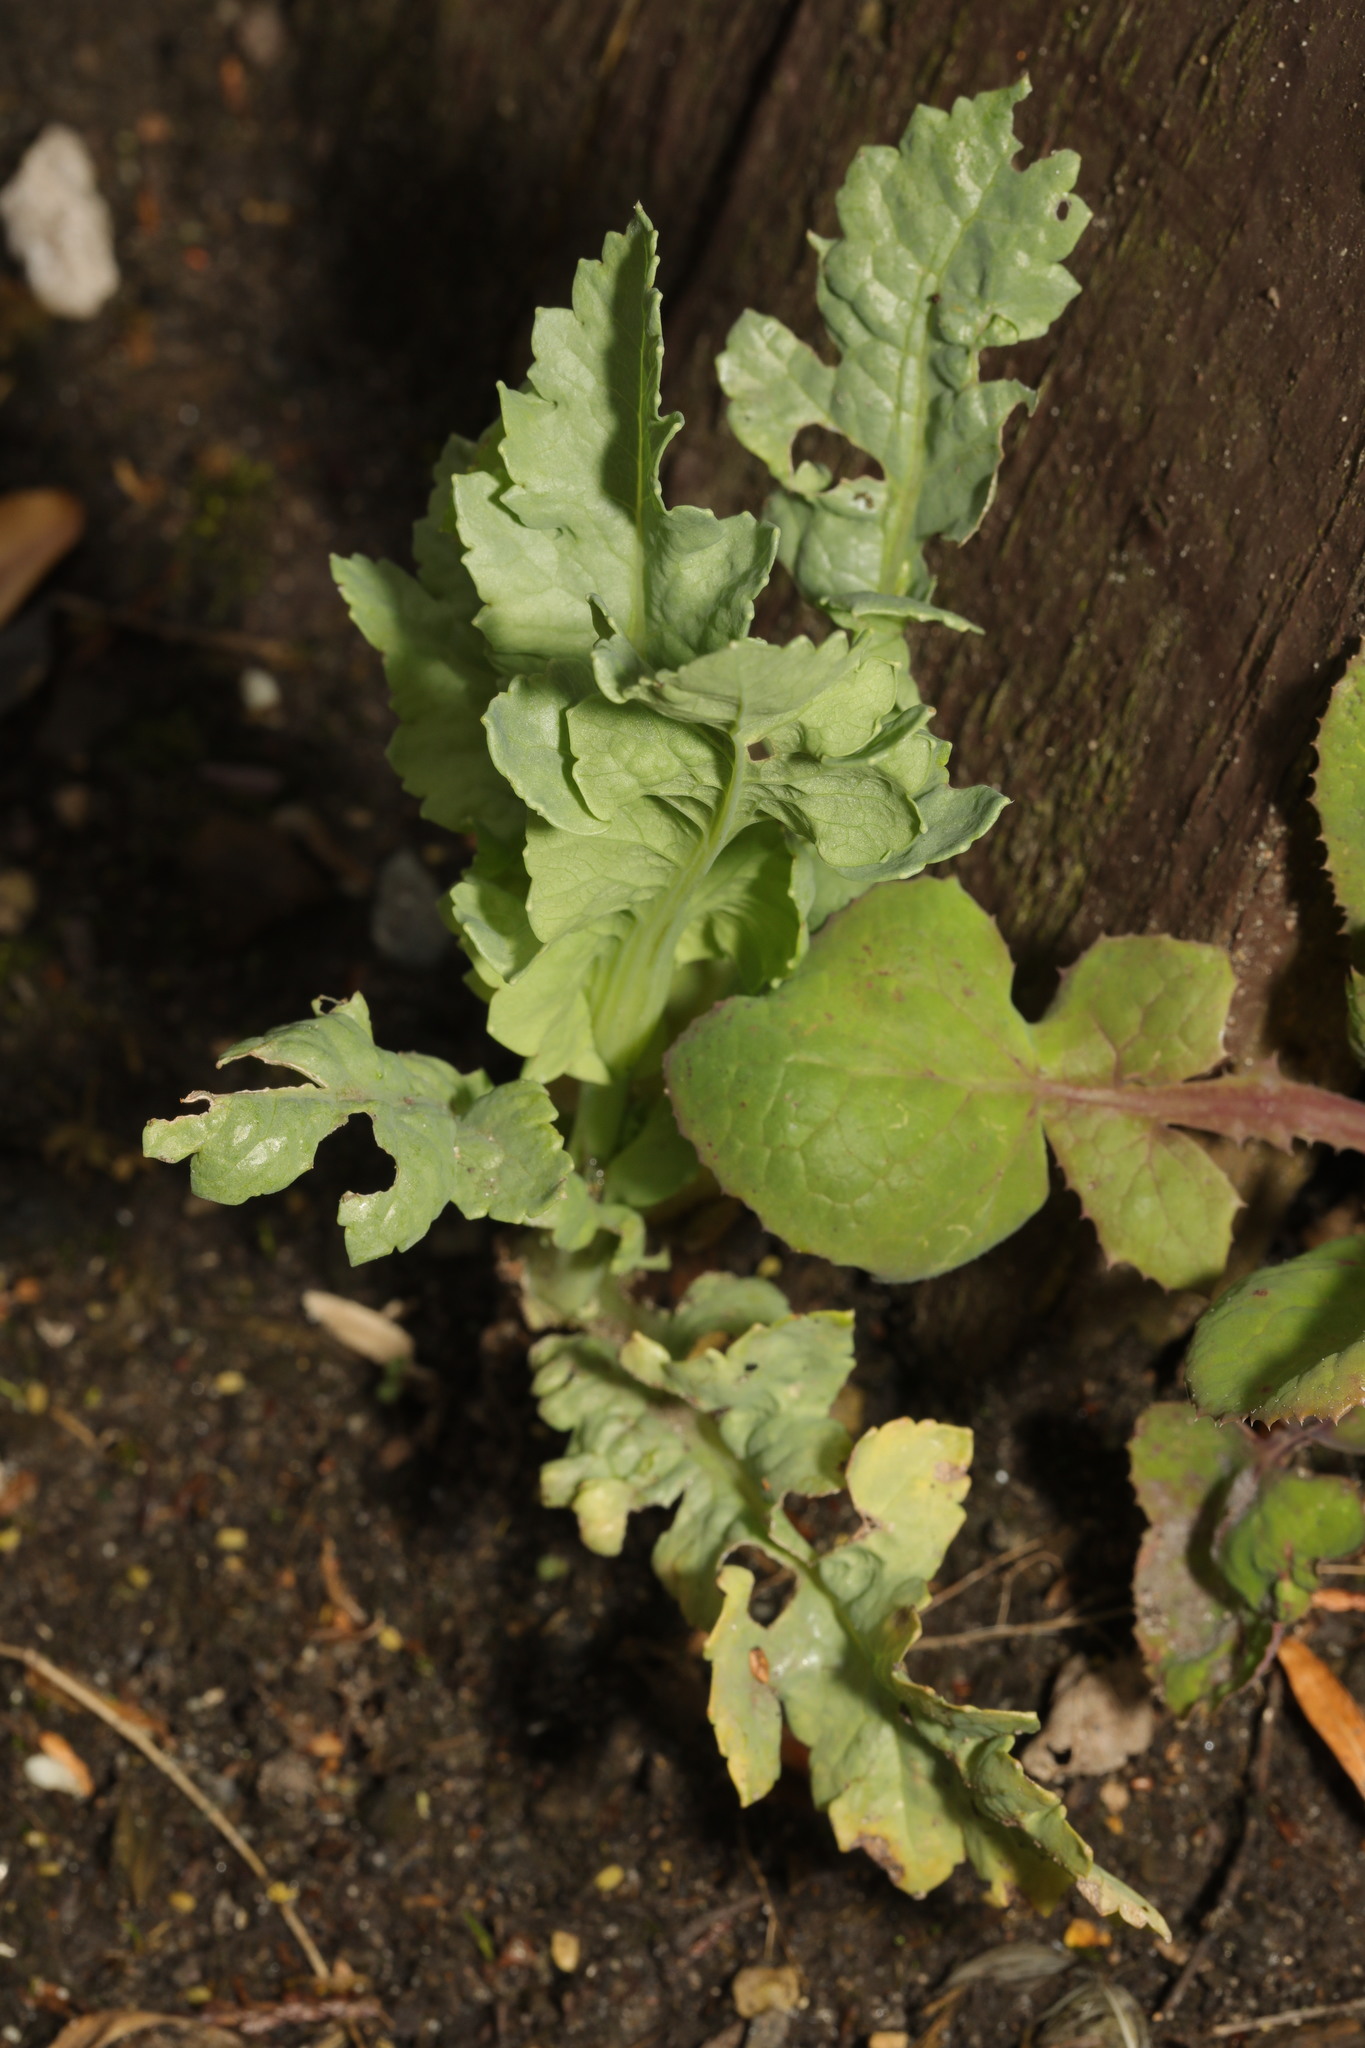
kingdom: Plantae
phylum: Tracheophyta
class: Magnoliopsida
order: Ranunculales
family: Papaveraceae
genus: Papaver
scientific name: Papaver somniferum
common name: Opium poppy
